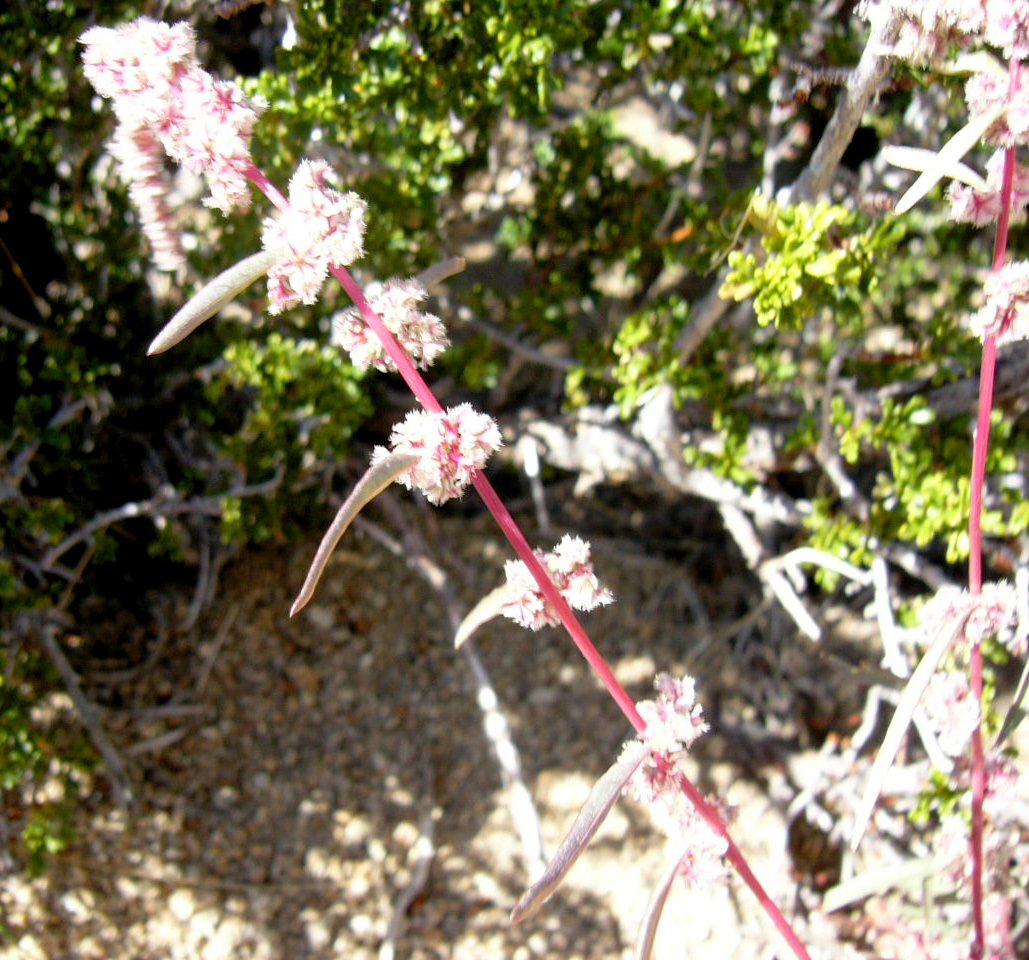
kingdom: Plantae
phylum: Tracheophyta
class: Magnoliopsida
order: Caryophyllales
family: Amaranthaceae
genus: Amaranthus
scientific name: Amaranthus fimbriatus
